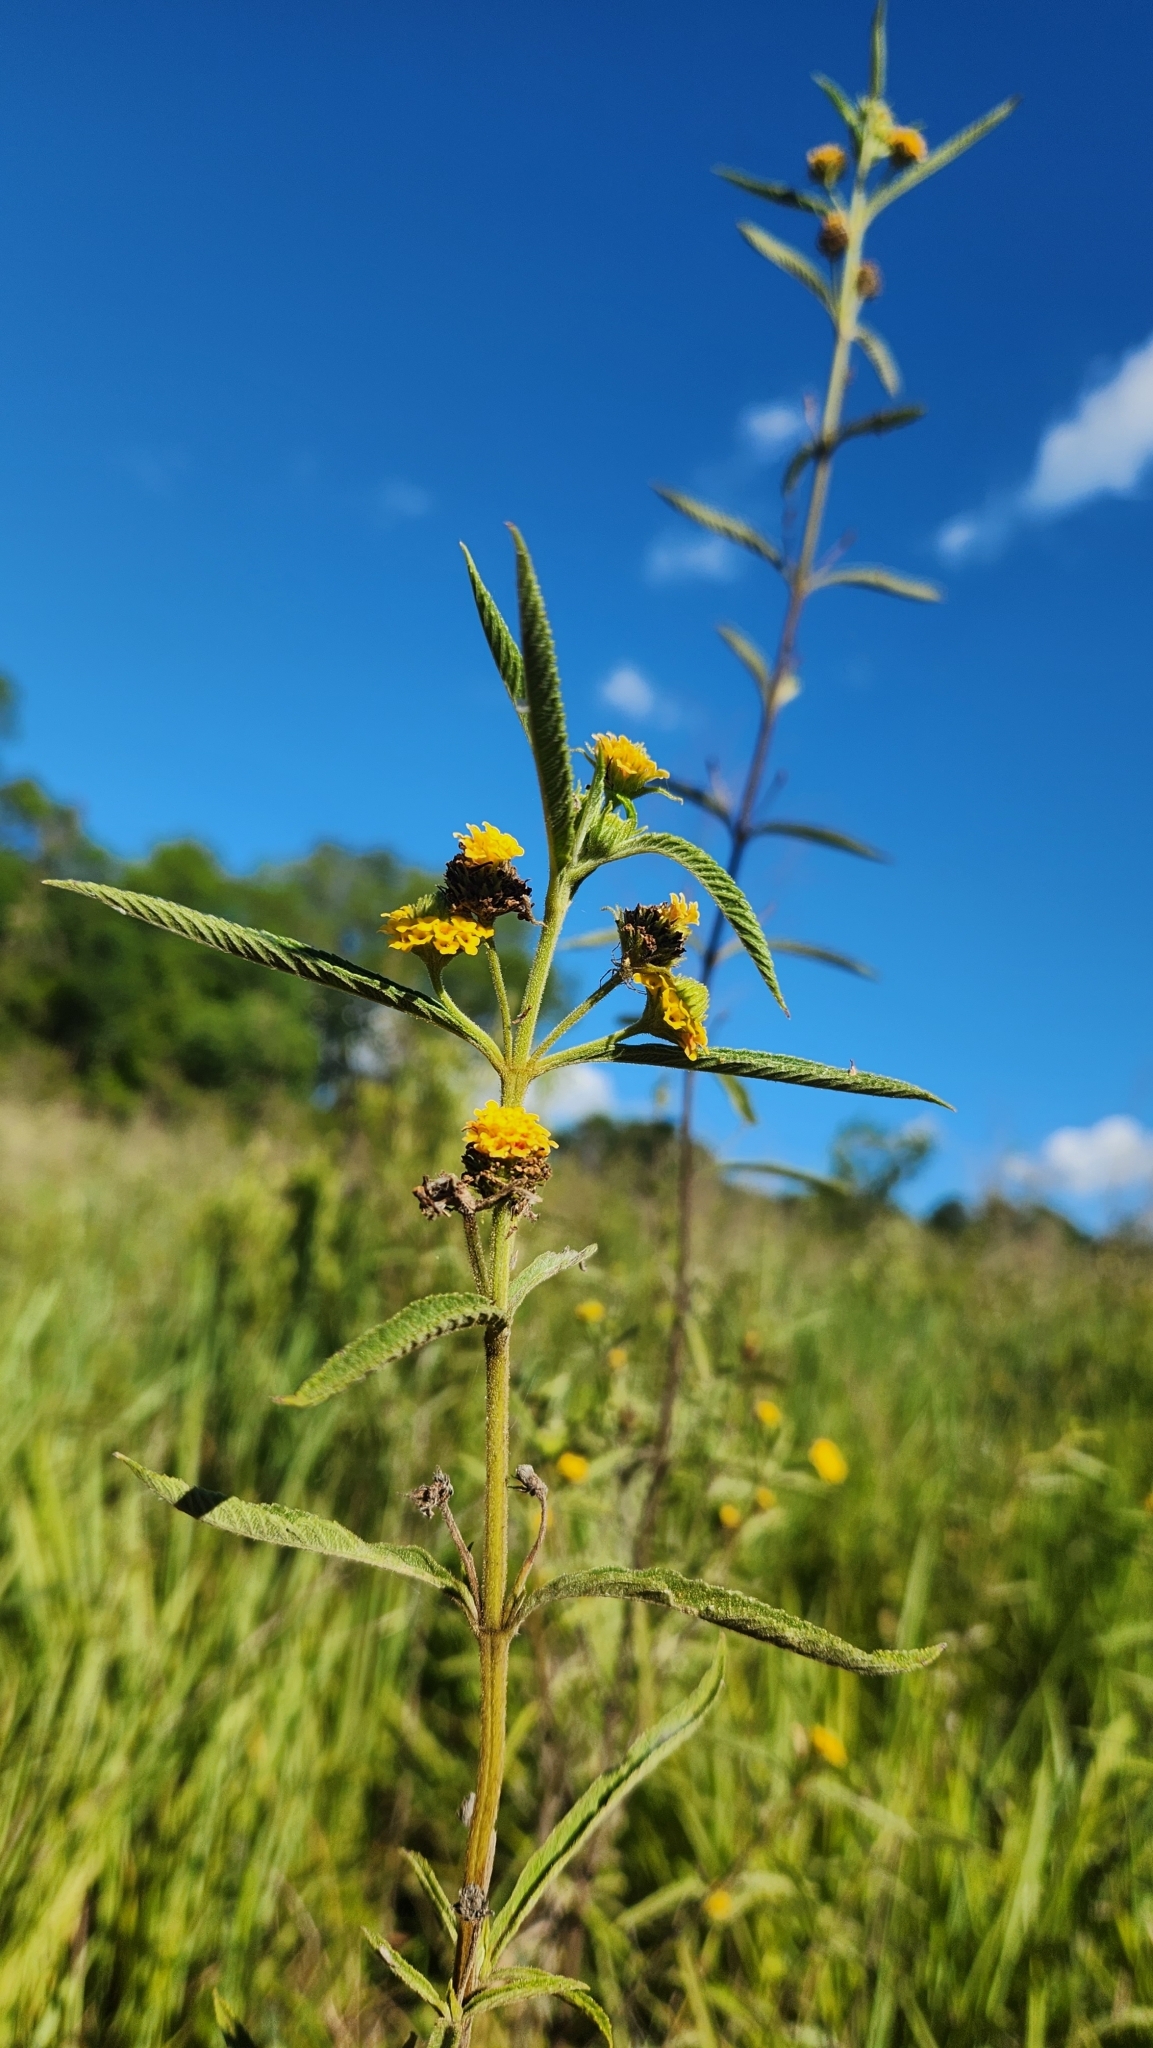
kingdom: Plantae
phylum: Tracheophyta
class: Magnoliopsida
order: Lamiales
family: Verbenaceae
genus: Lippia
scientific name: Lippia rodriguezii
